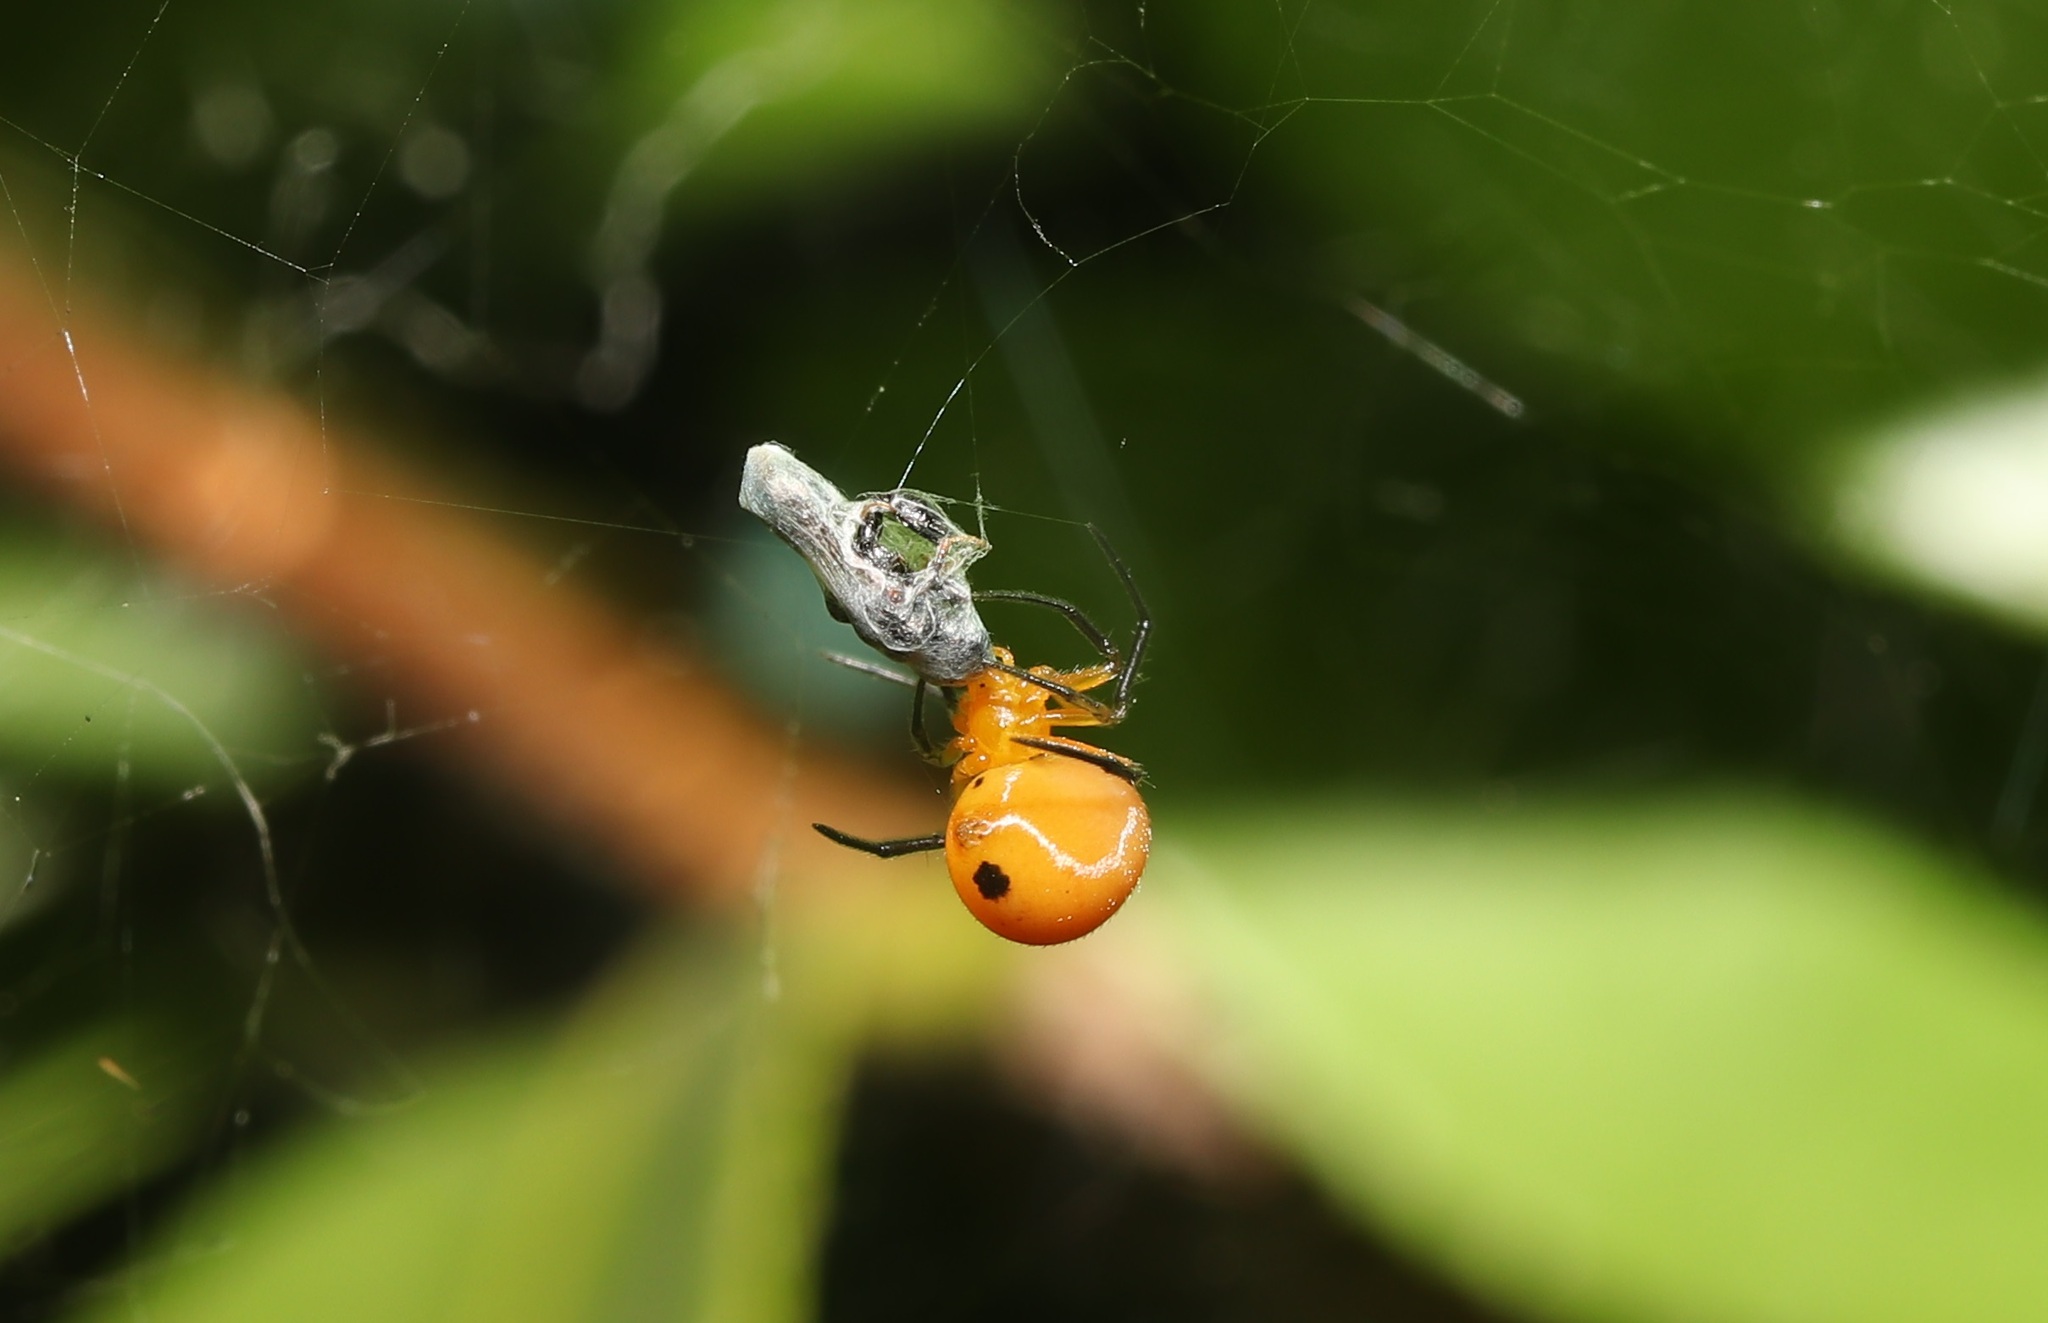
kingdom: Animalia
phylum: Arthropoda
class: Arachnida
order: Araneae
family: Theridiidae
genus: Nihonhimea
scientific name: Nihonhimea japonica
